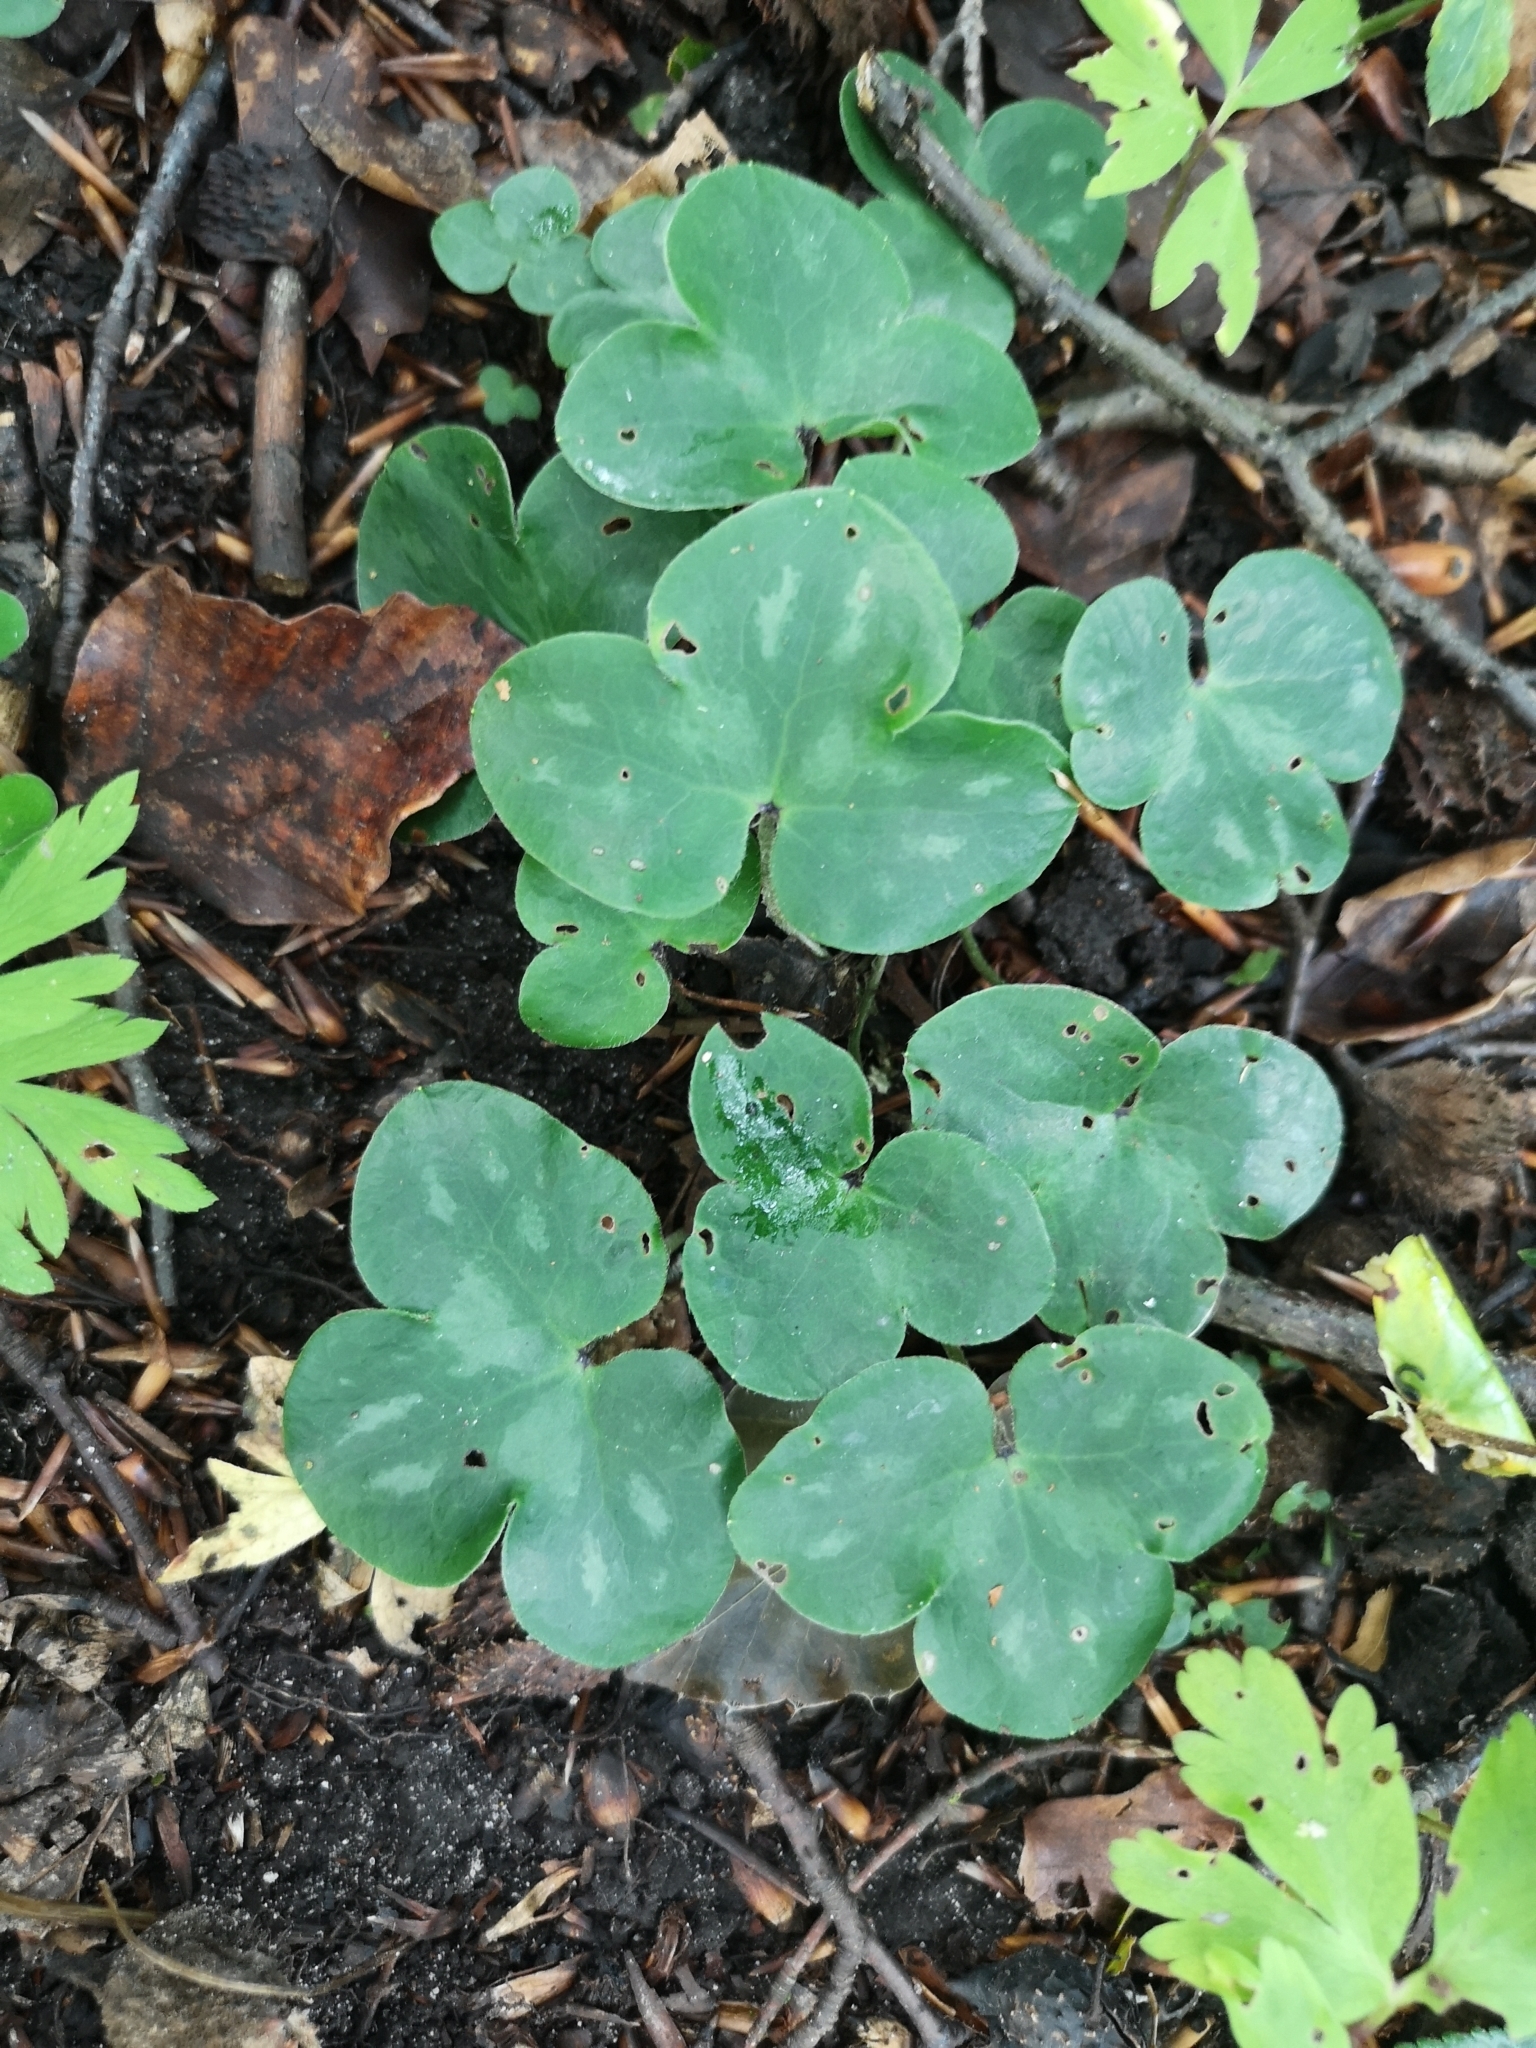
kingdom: Plantae
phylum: Tracheophyta
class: Magnoliopsida
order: Ranunculales
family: Ranunculaceae
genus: Hepatica
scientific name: Hepatica nobilis
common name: Liverleaf
